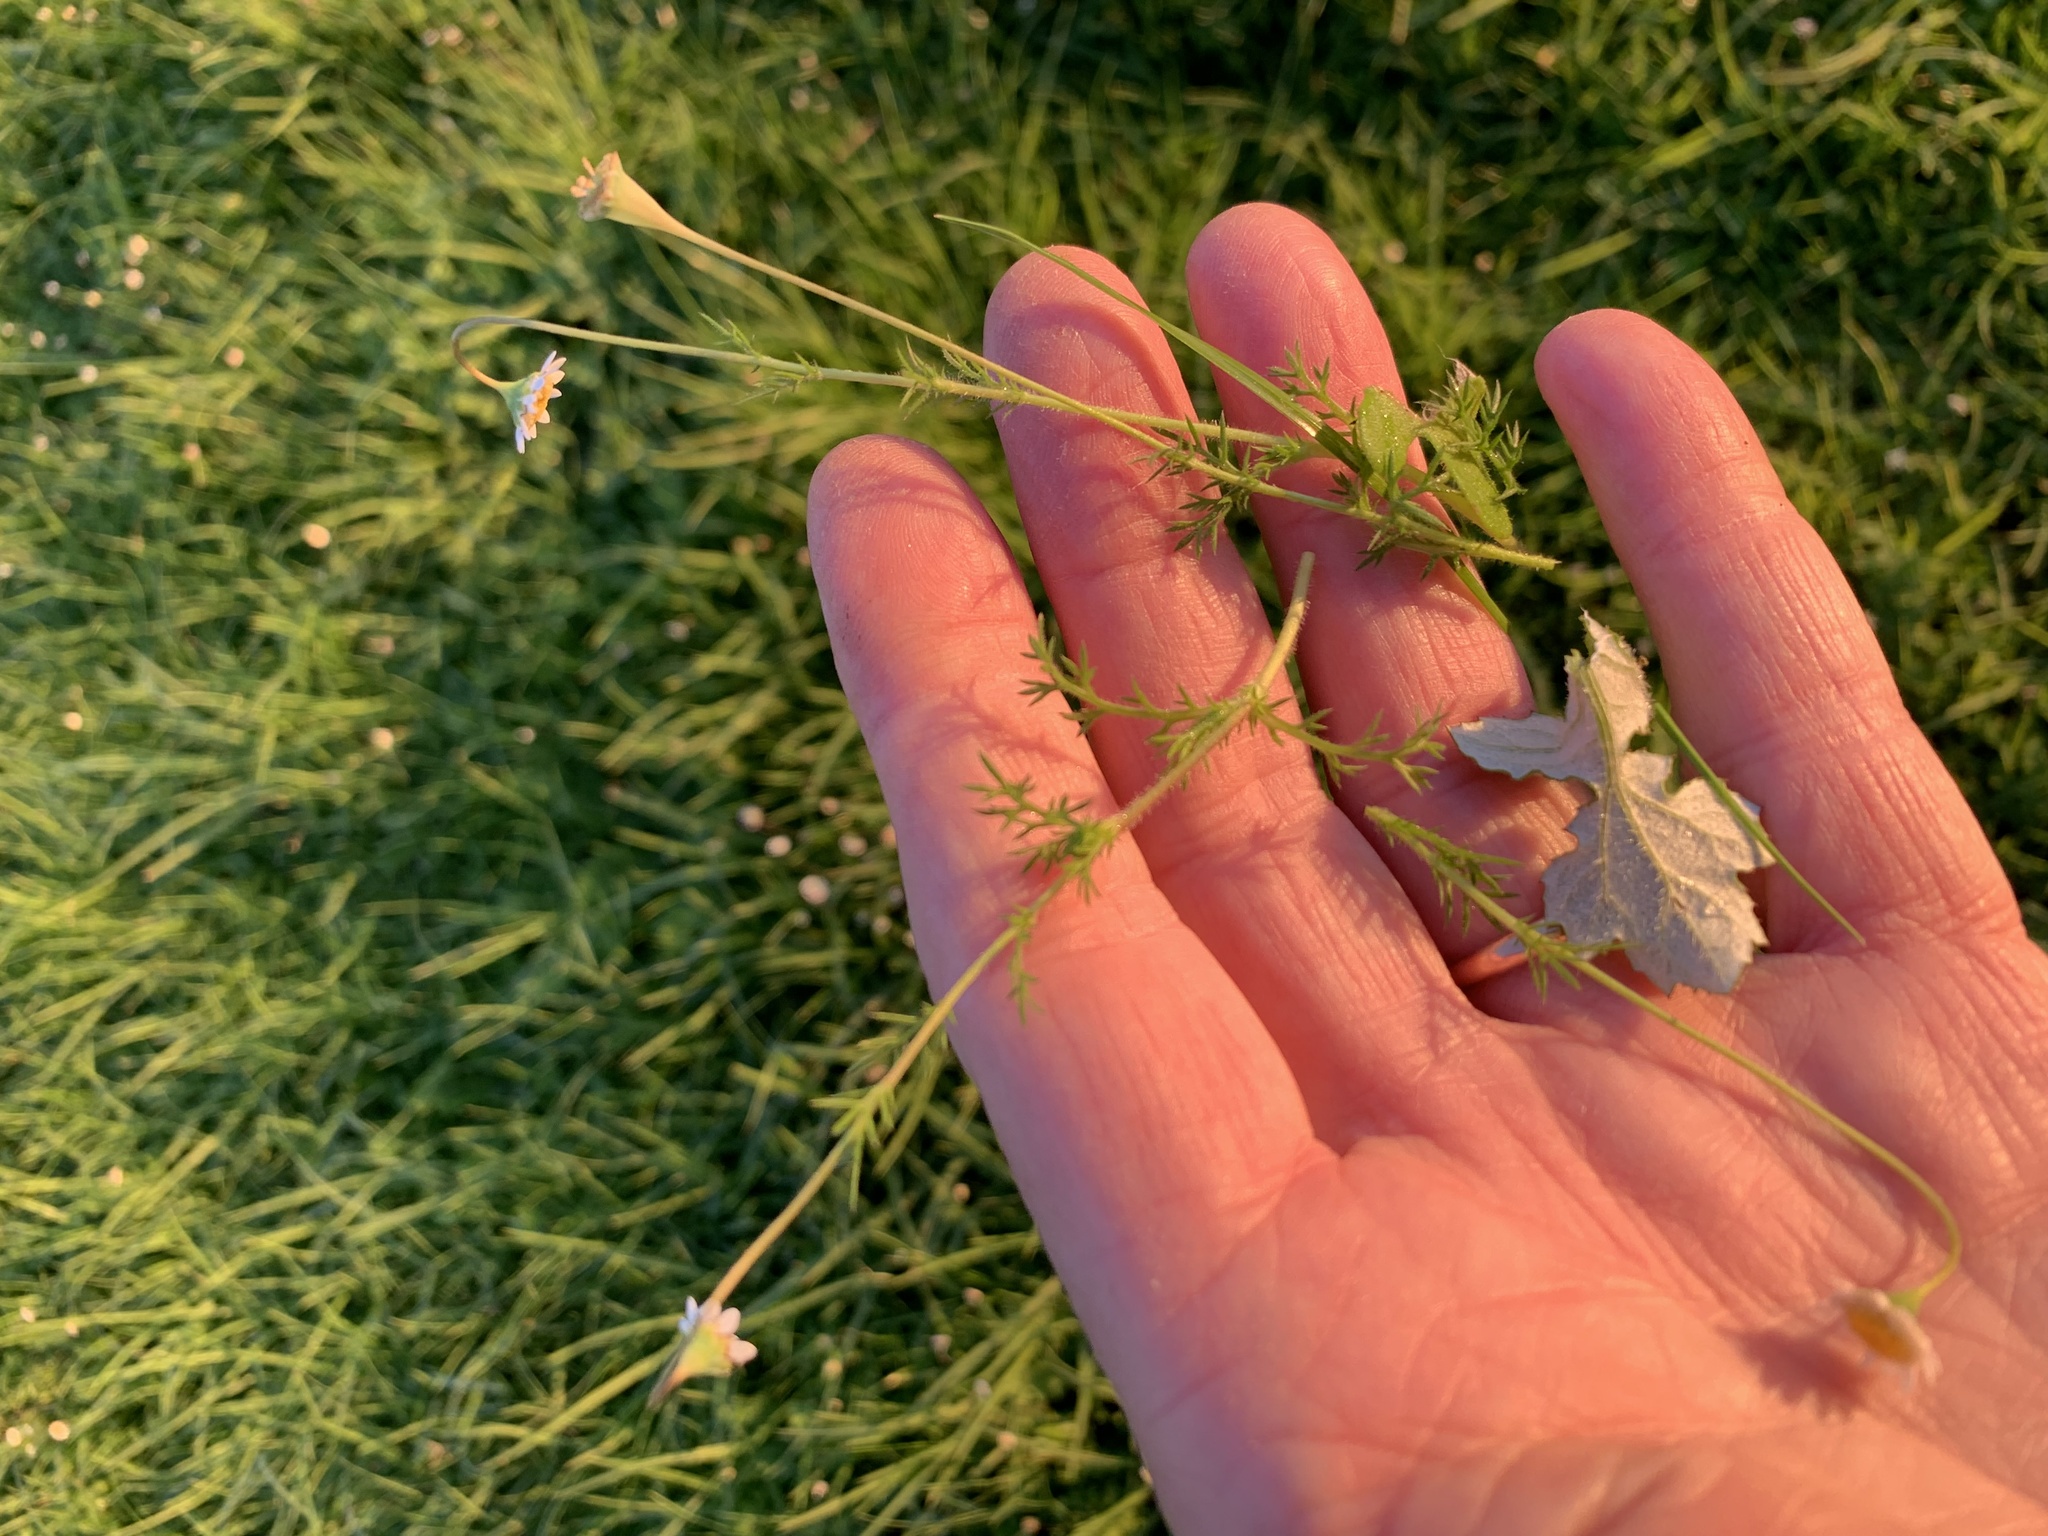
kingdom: Plantae
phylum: Tracheophyta
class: Magnoliopsida
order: Asterales
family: Asteraceae
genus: Cotula
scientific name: Cotula turbinata
